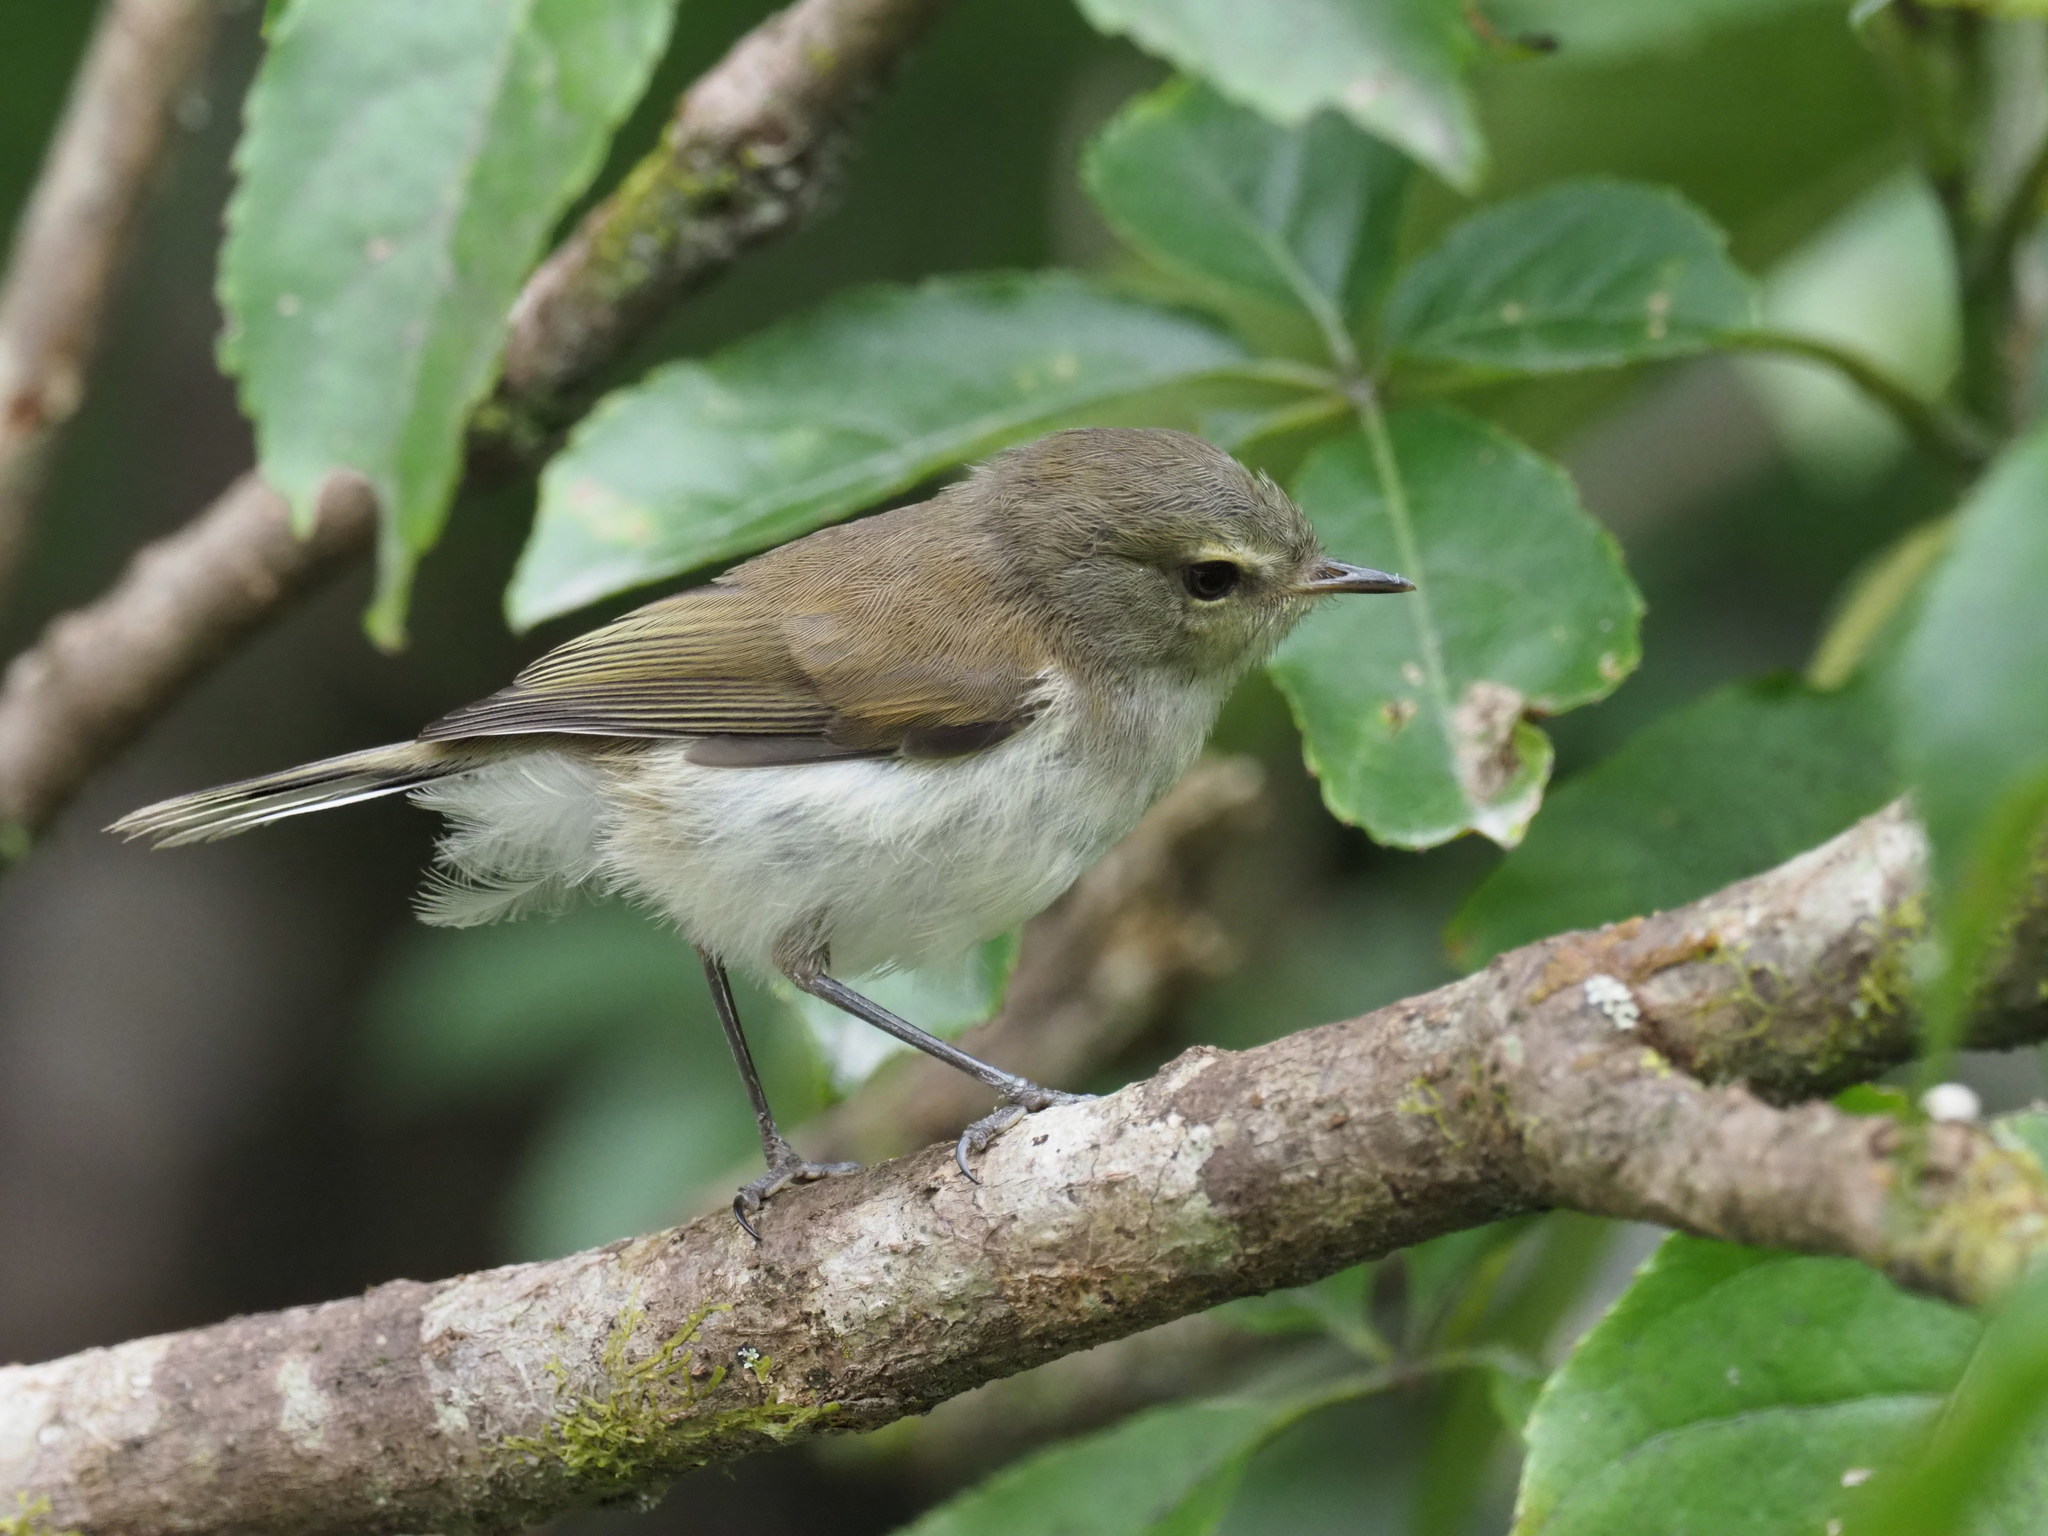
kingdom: Animalia
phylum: Chordata
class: Aves
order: Passeriformes
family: Acanthizidae
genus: Gerygone
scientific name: Gerygone igata
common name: Grey gerygone
